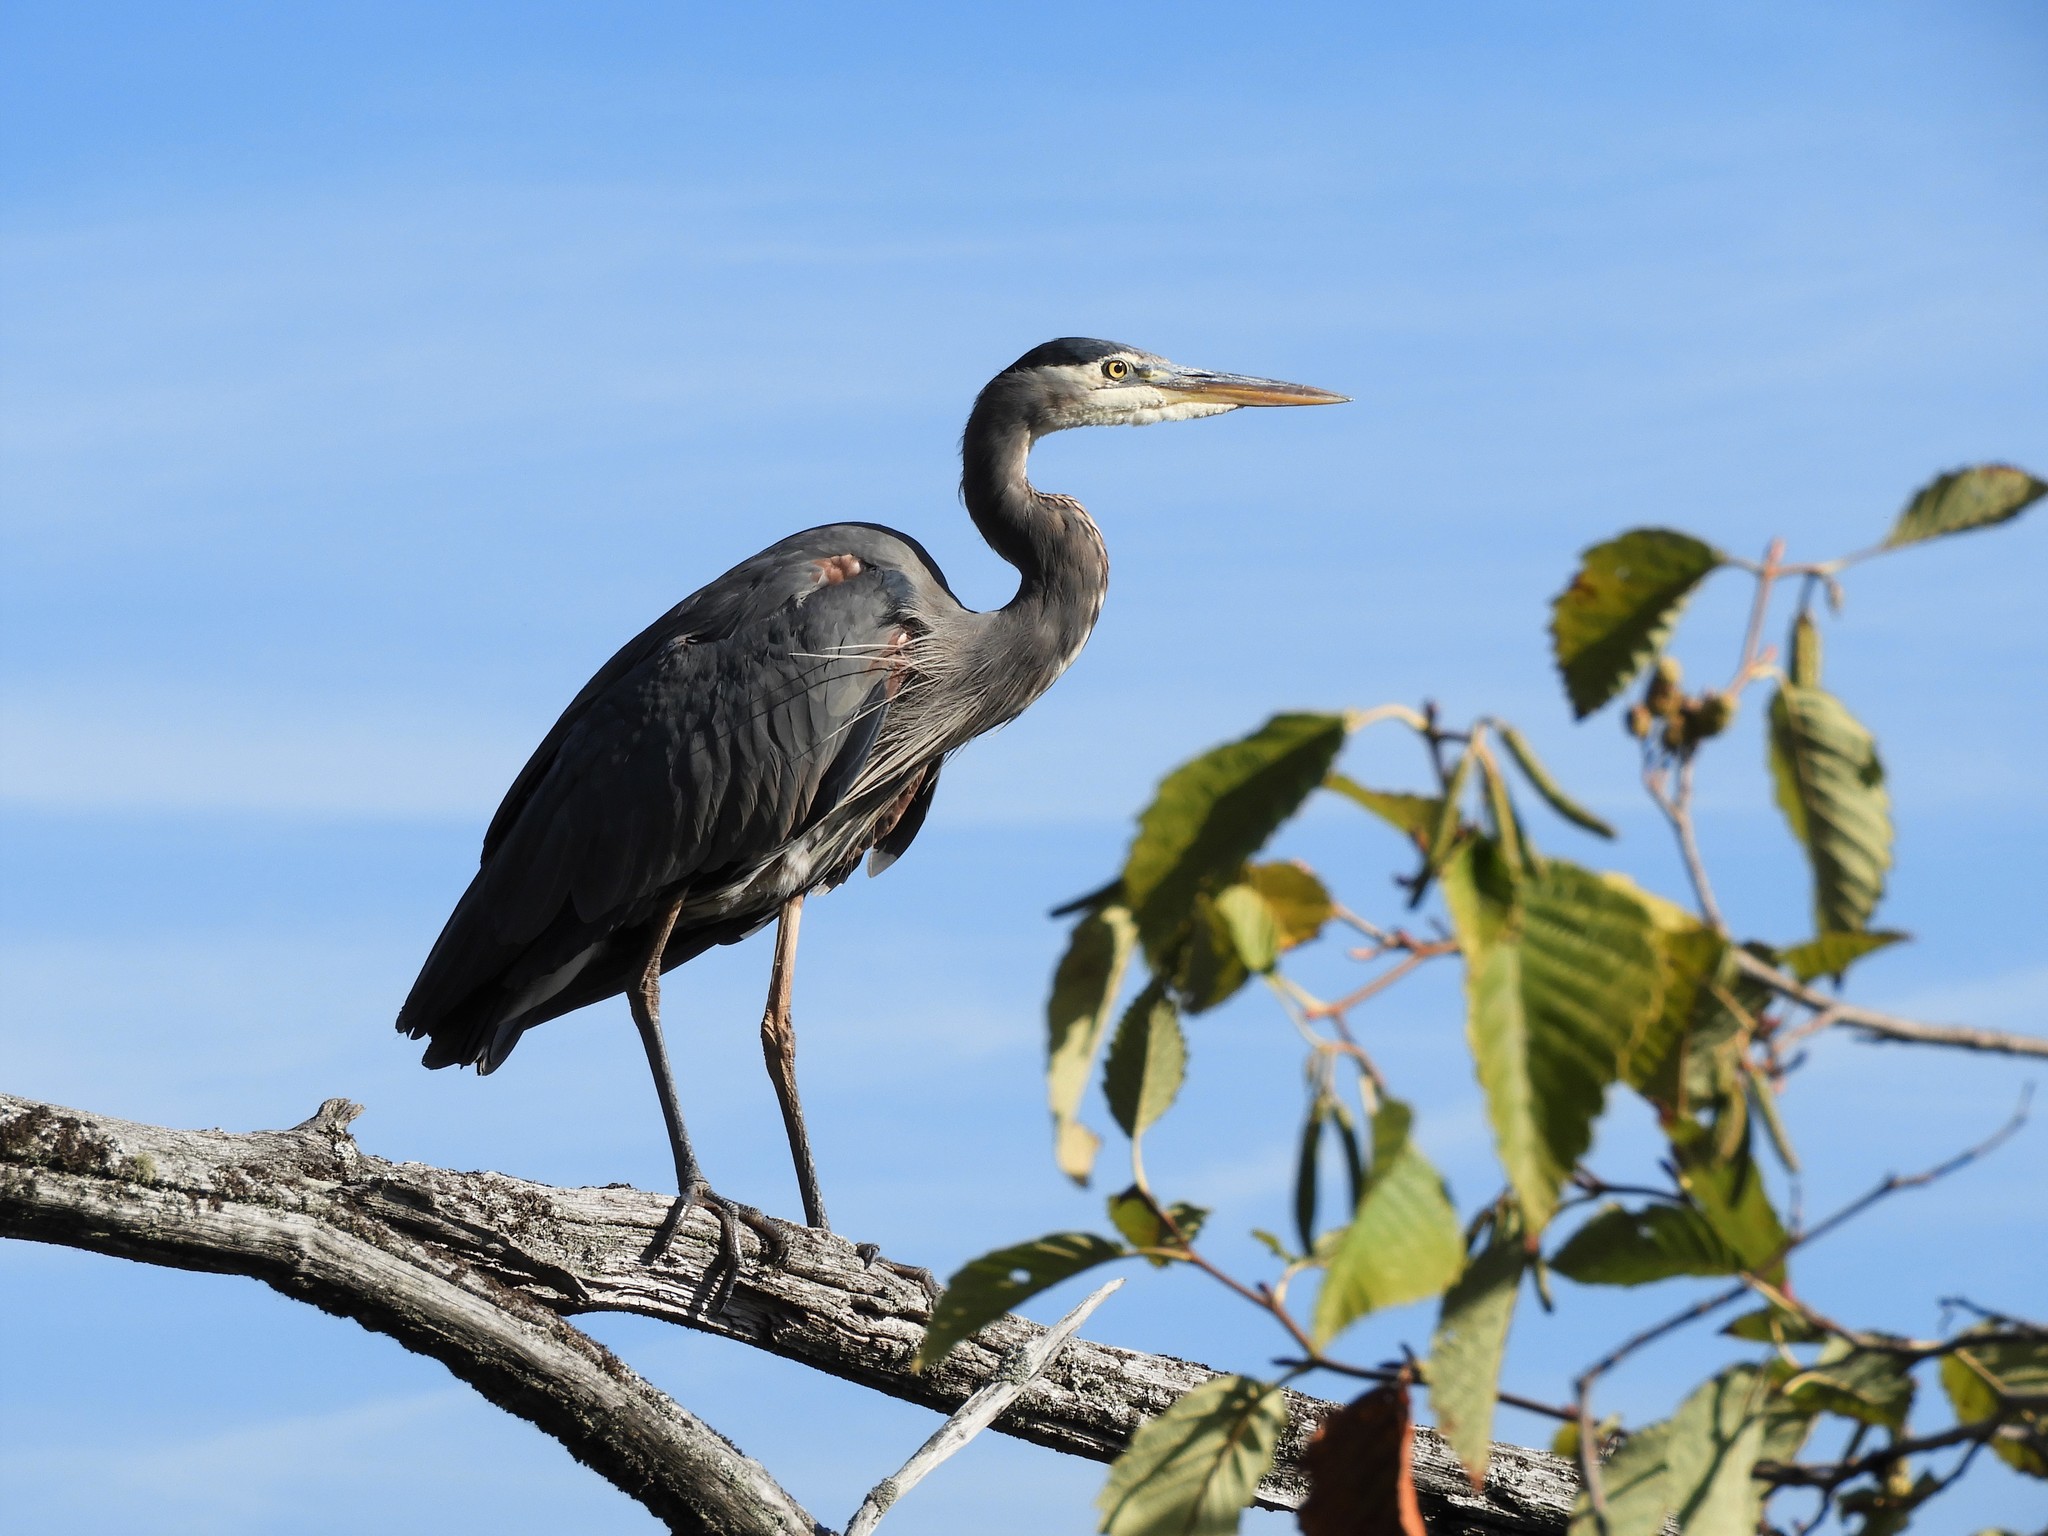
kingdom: Animalia
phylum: Chordata
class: Aves
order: Pelecaniformes
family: Ardeidae
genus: Ardea
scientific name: Ardea herodias
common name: Great blue heron
